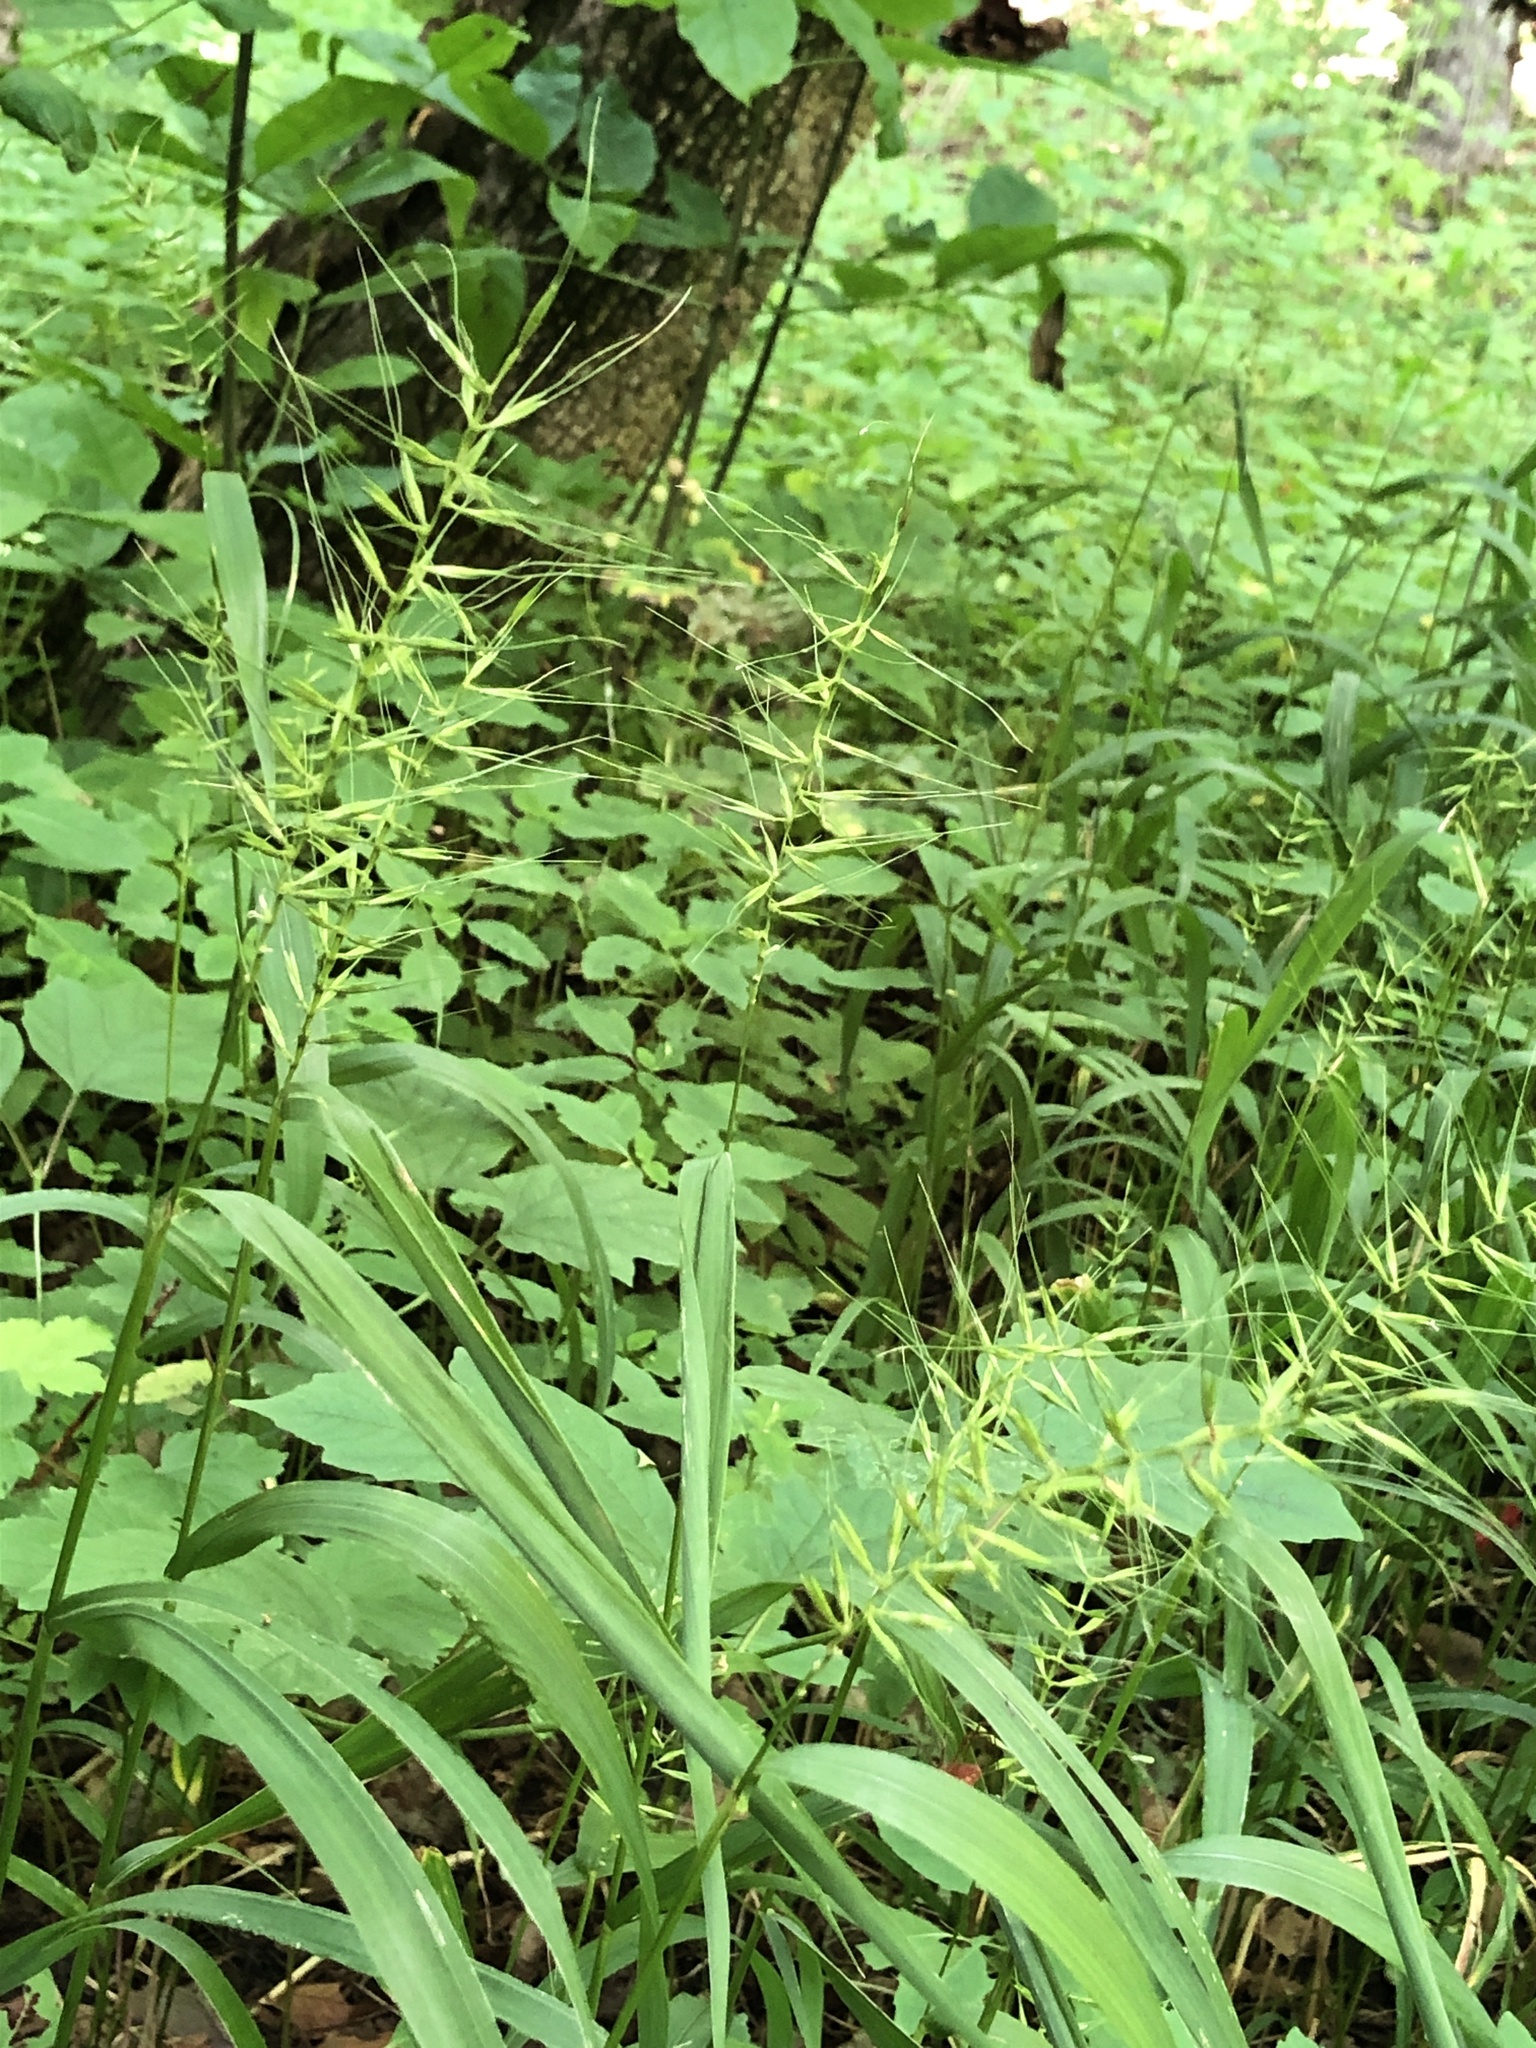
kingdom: Plantae
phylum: Tracheophyta
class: Liliopsida
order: Poales
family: Poaceae
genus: Elymus
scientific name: Elymus hystrix
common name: Bottlebrush grass
